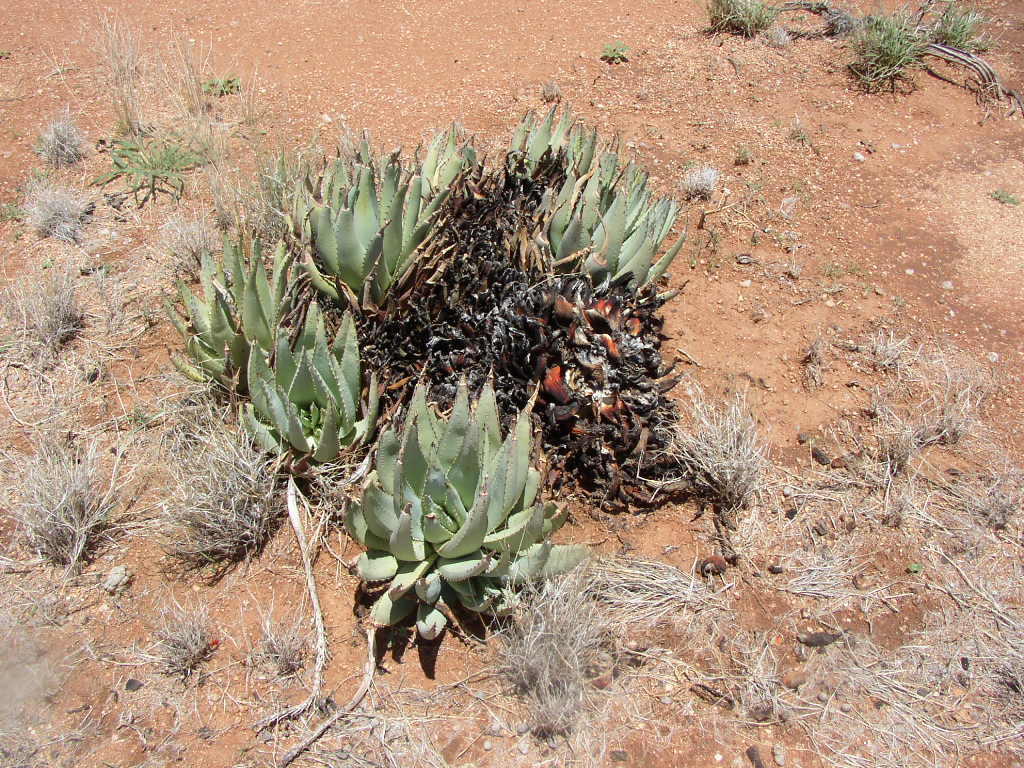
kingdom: Plantae
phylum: Tracheophyta
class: Liliopsida
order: Asparagales
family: Asphodelaceae
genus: Aloe
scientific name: Aloe claviflora
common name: Cannon aloe
